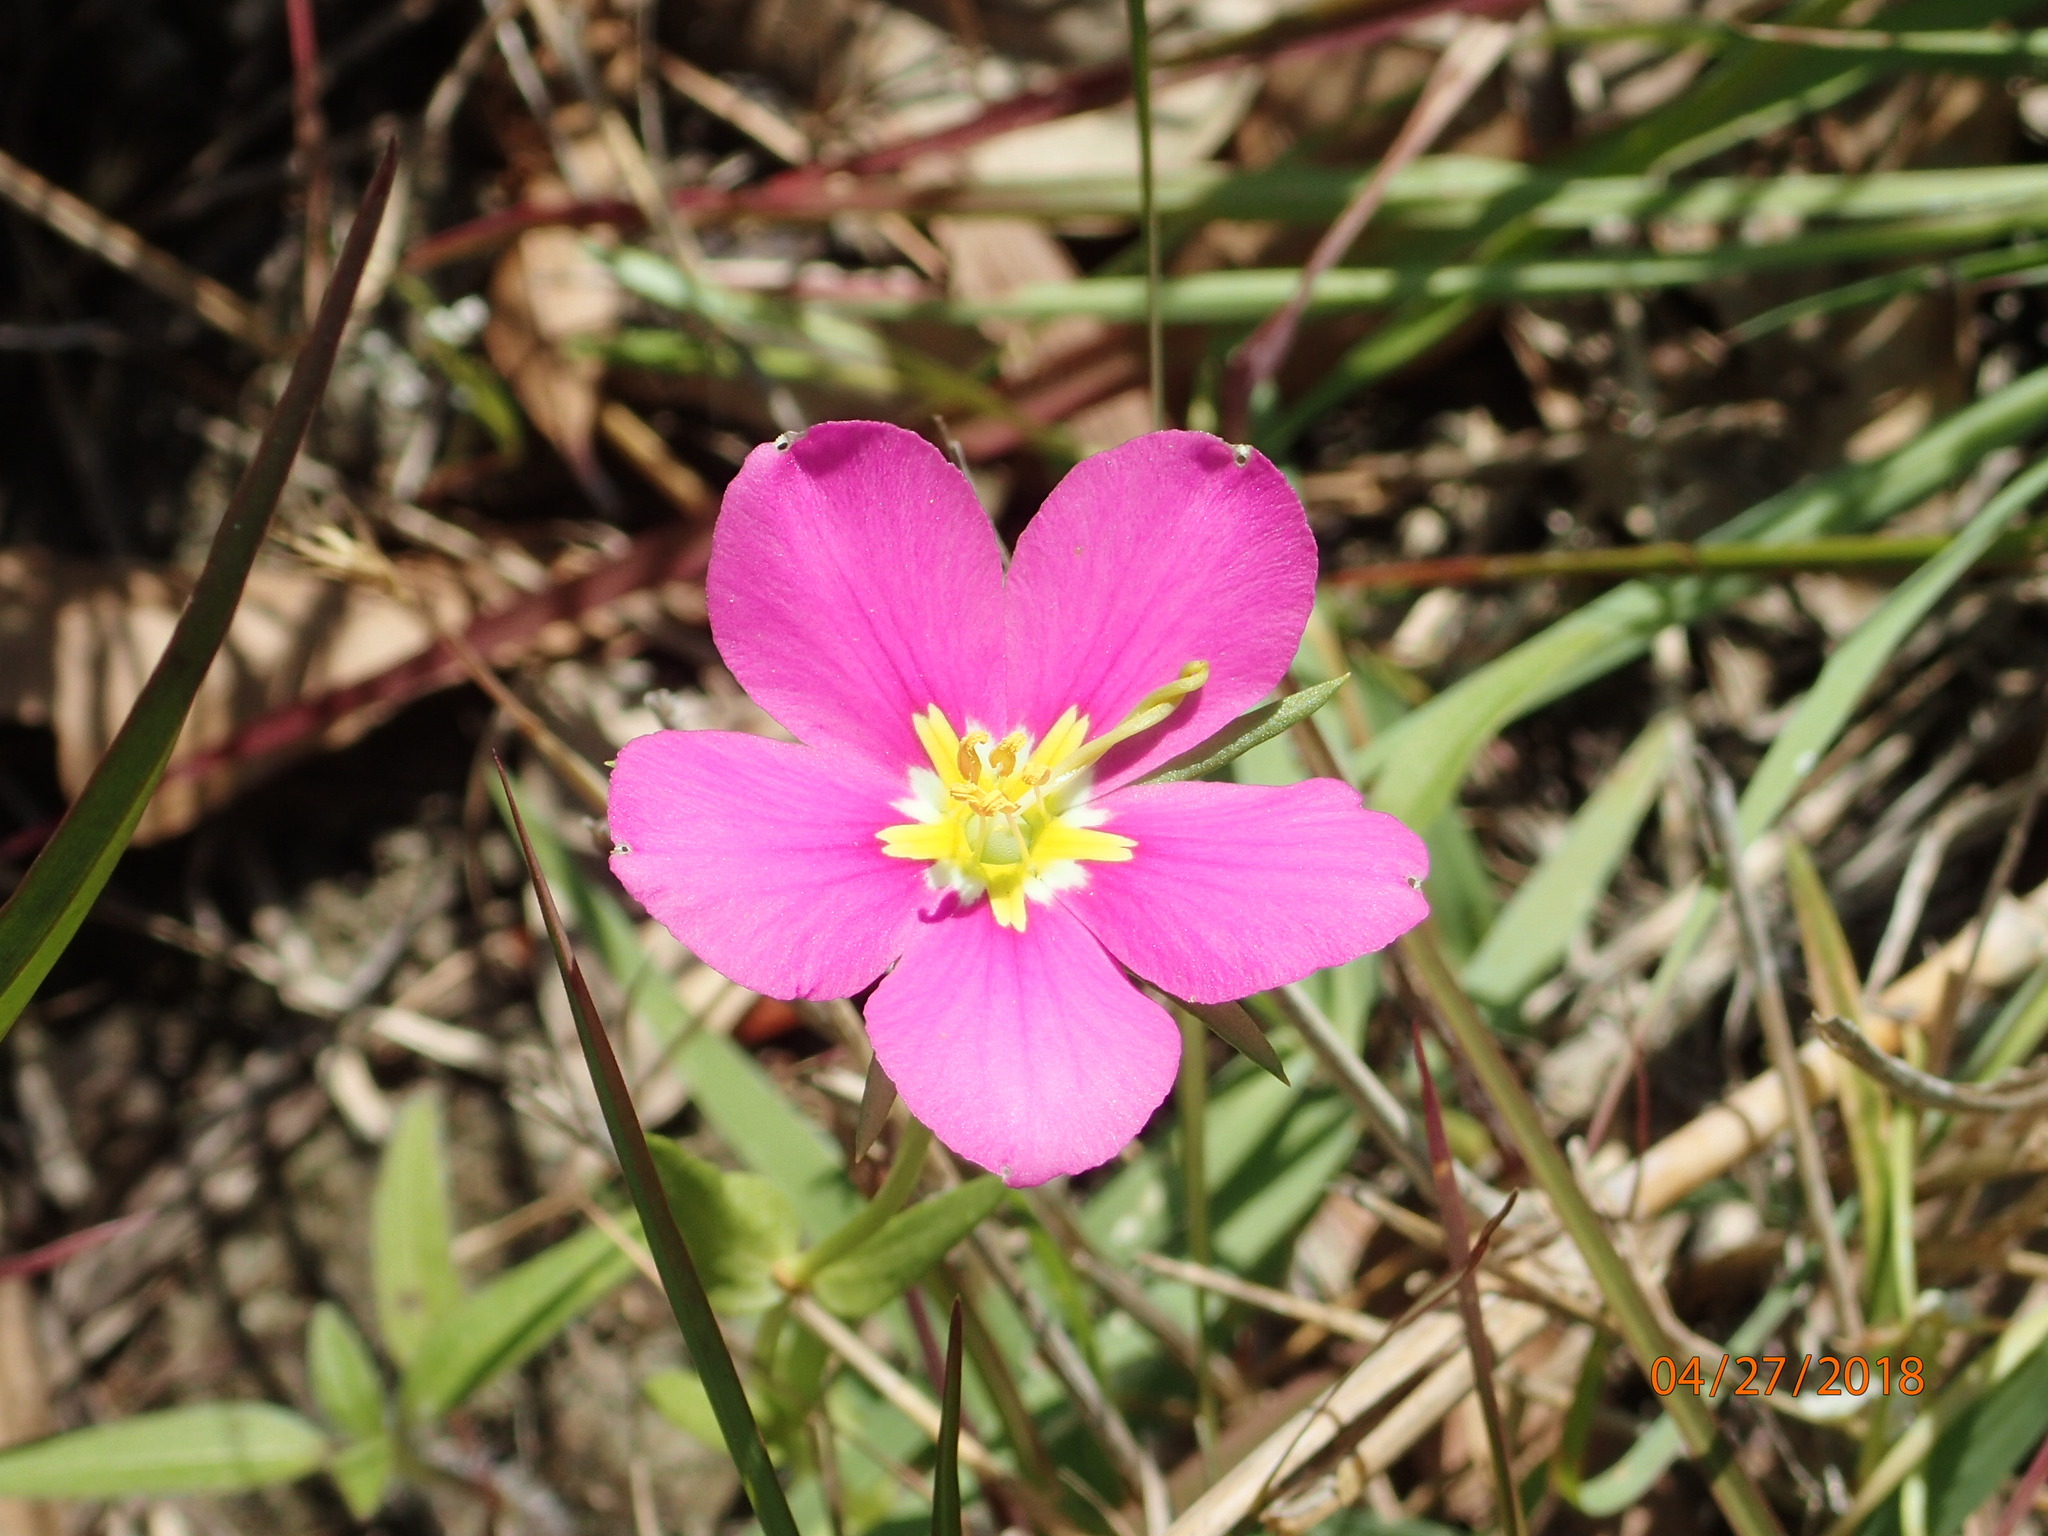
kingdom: Plantae
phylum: Tracheophyta
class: Magnoliopsida
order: Gentianales
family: Gentianaceae
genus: Sabatia
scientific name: Sabatia campestris
